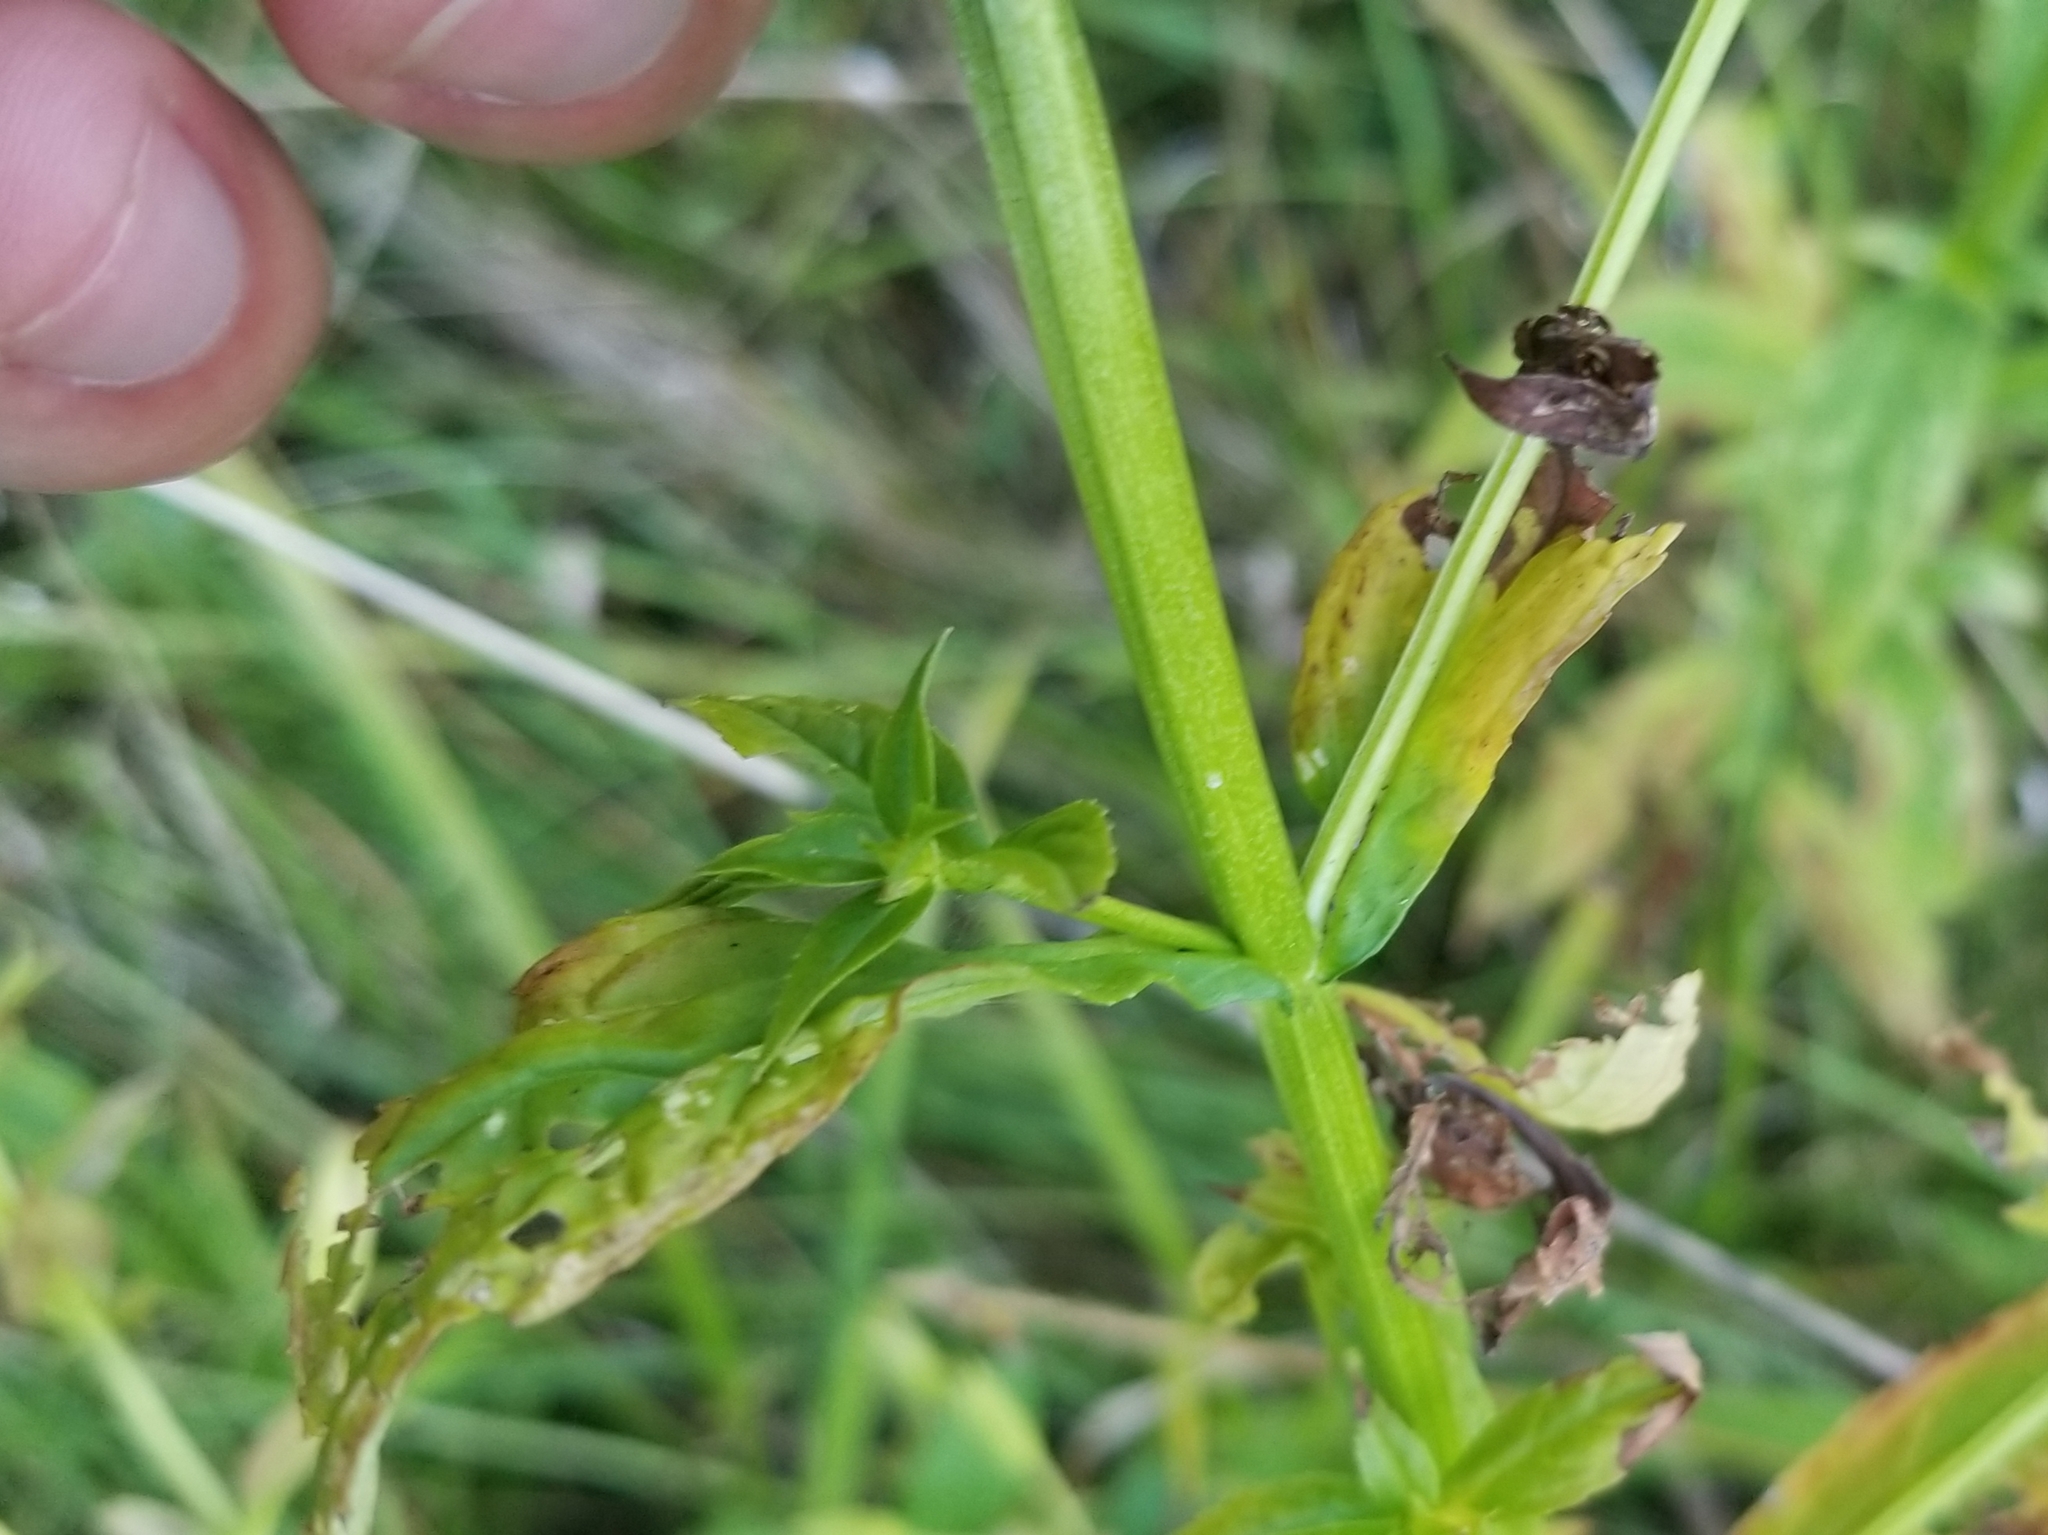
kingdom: Plantae
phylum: Tracheophyta
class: Magnoliopsida
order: Lamiales
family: Phrymaceae
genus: Mimulus
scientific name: Mimulus ringens
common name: Allegheny monkeyflower
